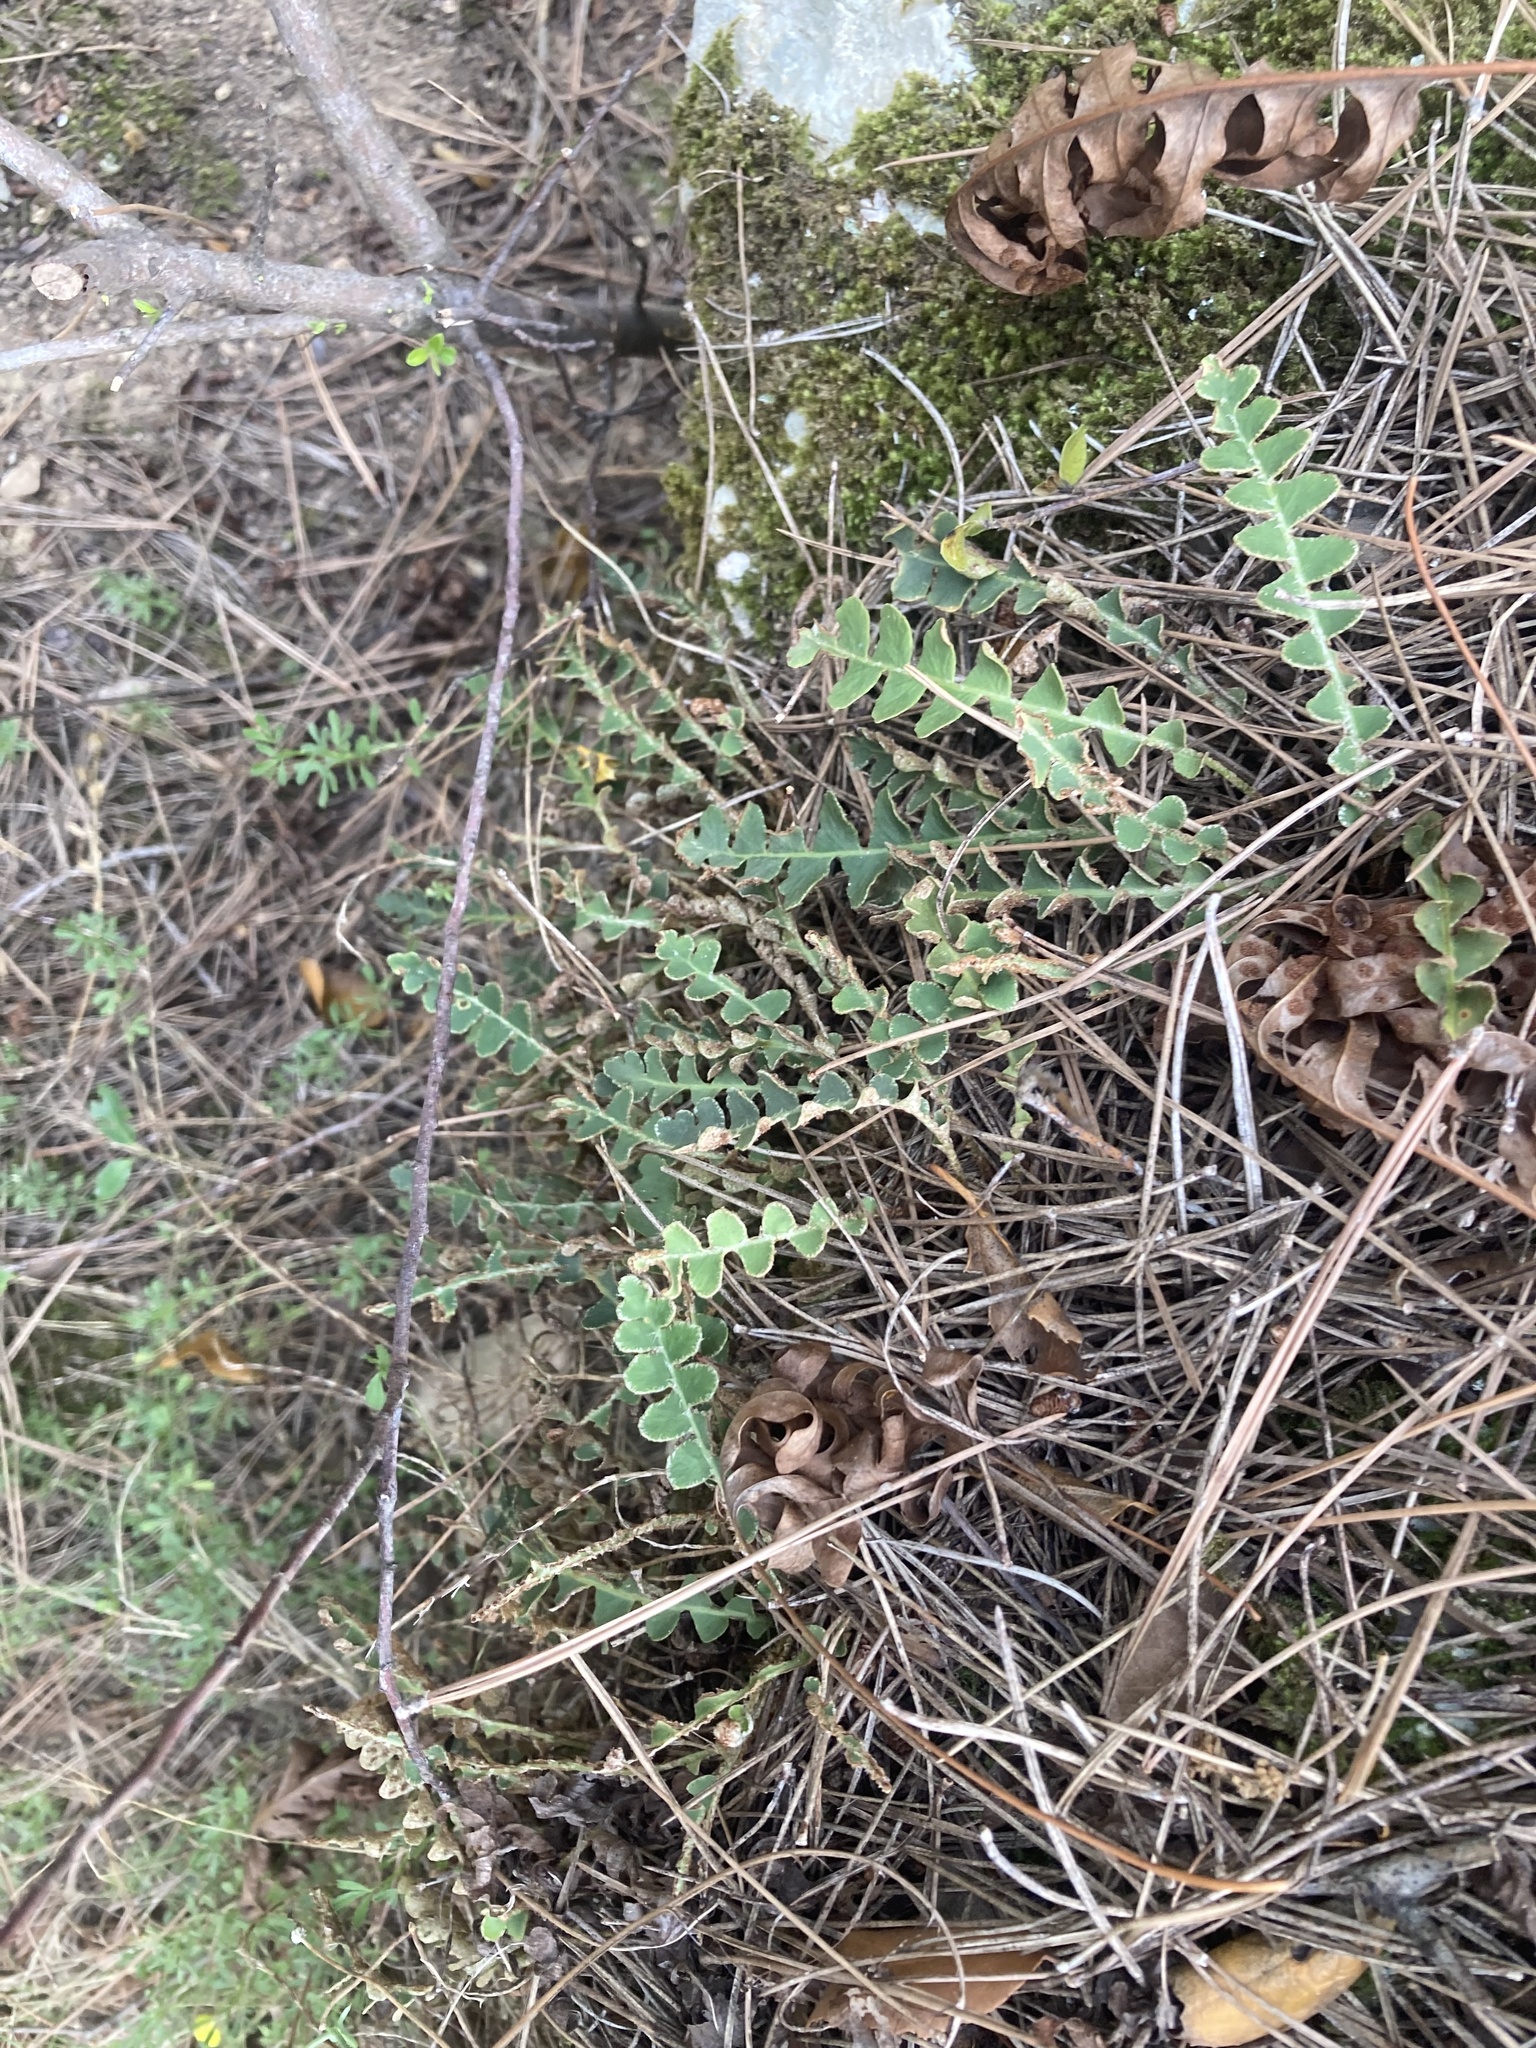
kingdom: Plantae
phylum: Tracheophyta
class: Polypodiopsida
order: Polypodiales
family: Aspleniaceae
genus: Asplenium
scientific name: Asplenium ceterach
